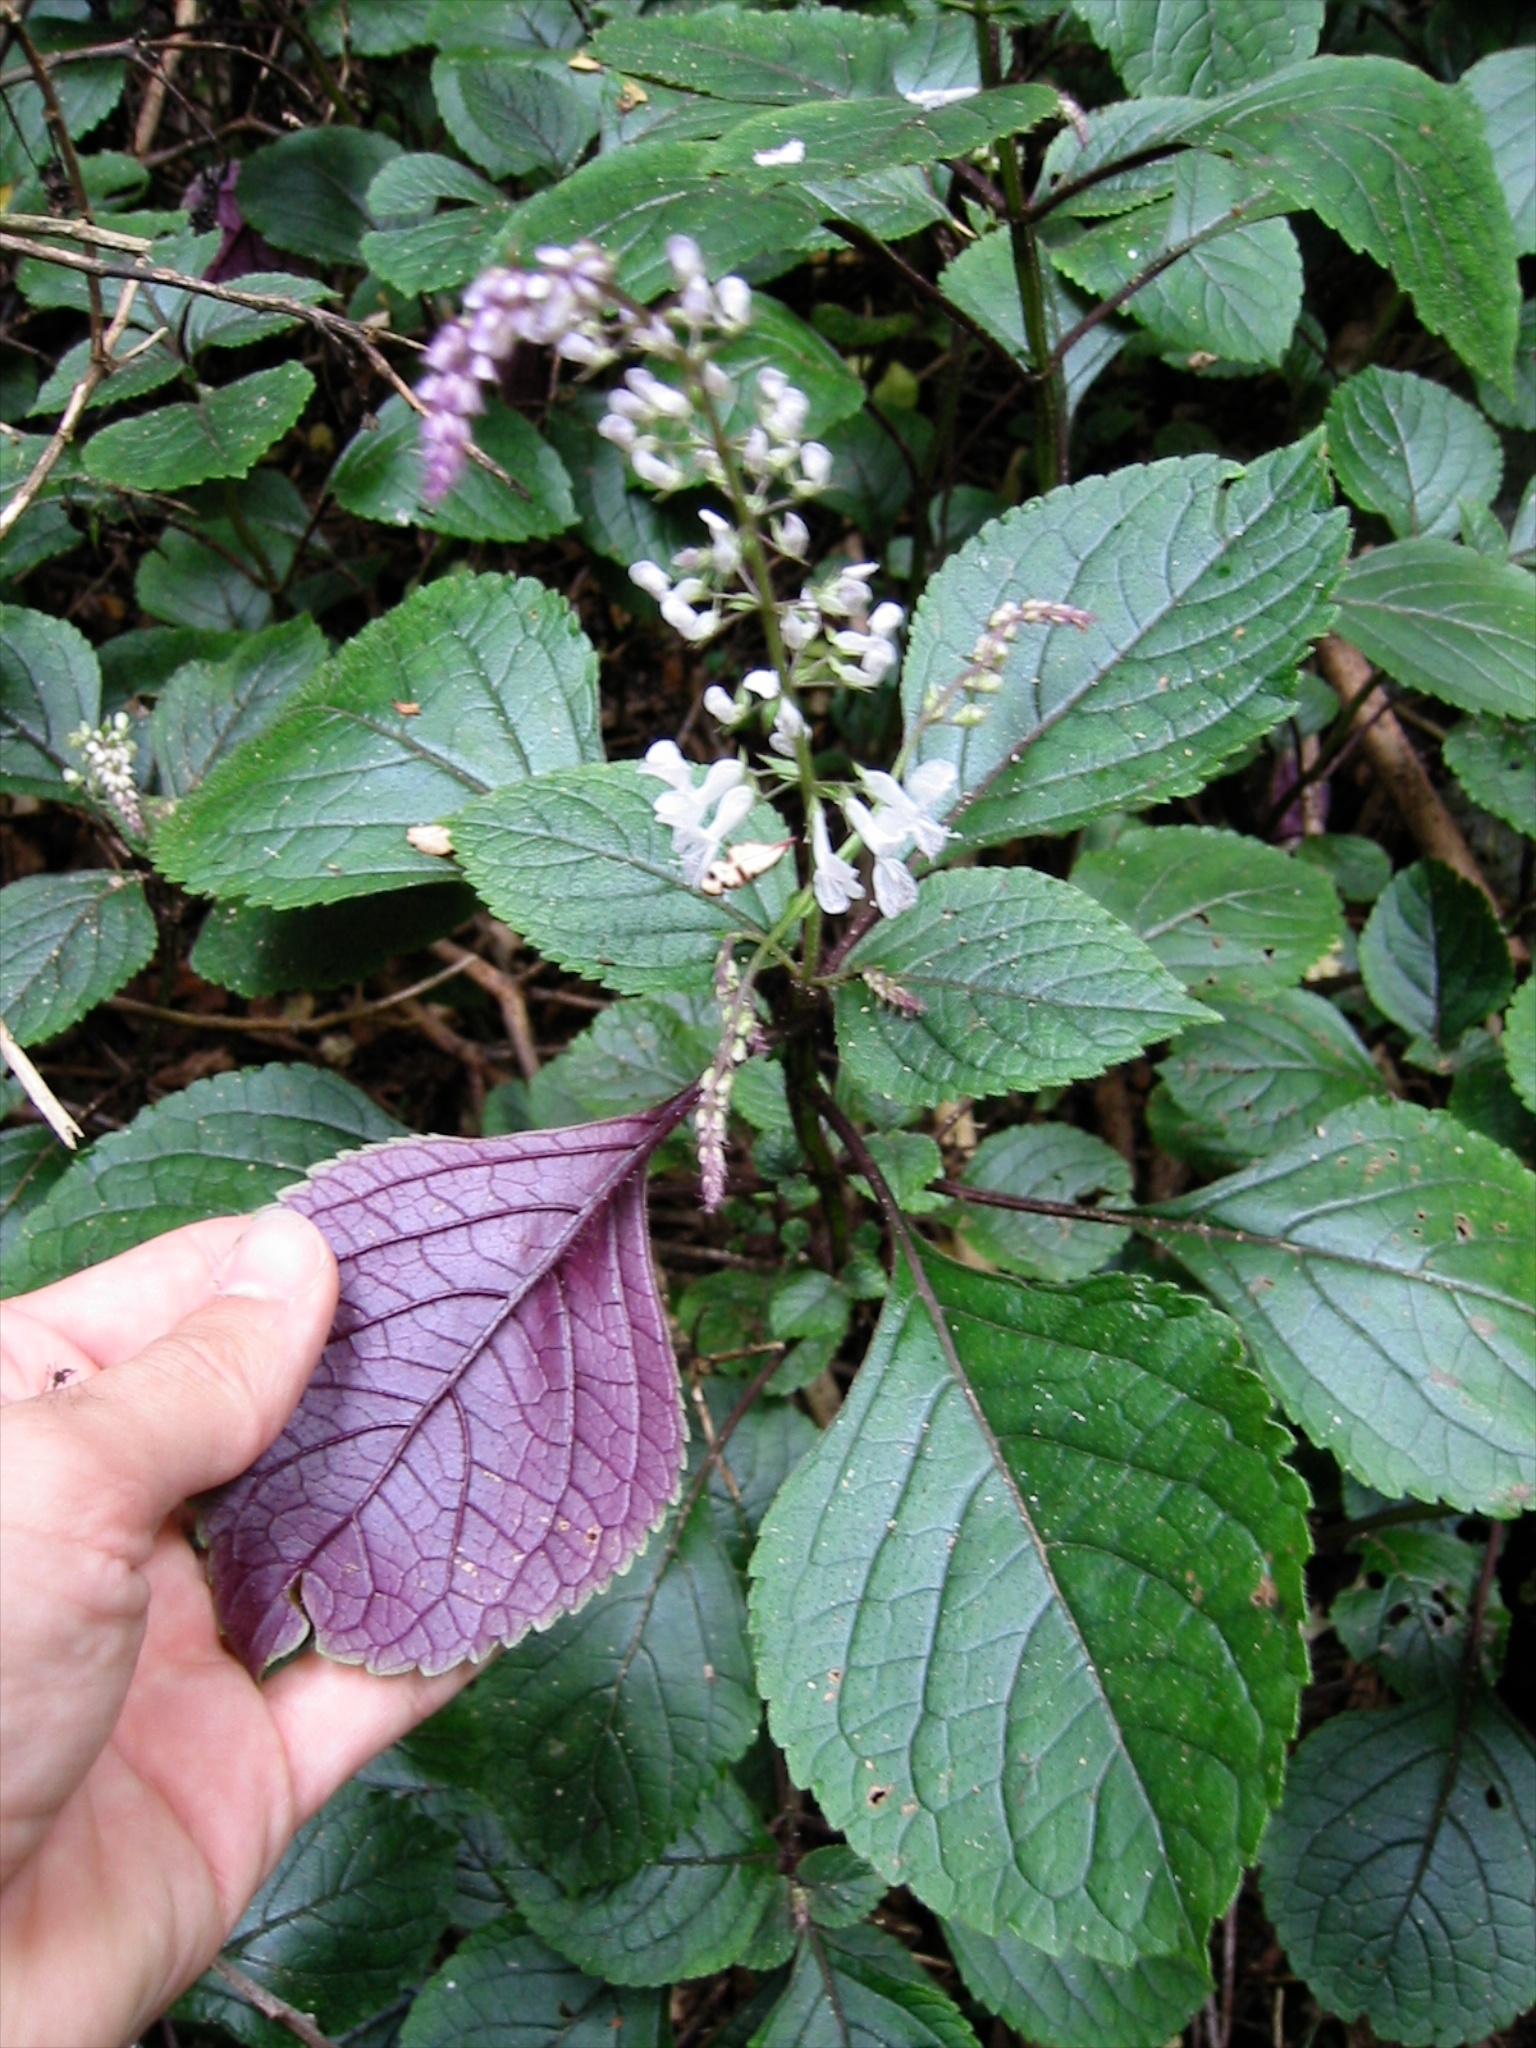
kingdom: Plantae
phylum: Tracheophyta
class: Magnoliopsida
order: Lamiales
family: Lamiaceae
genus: Plectranthus
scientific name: Plectranthus ciliatus
